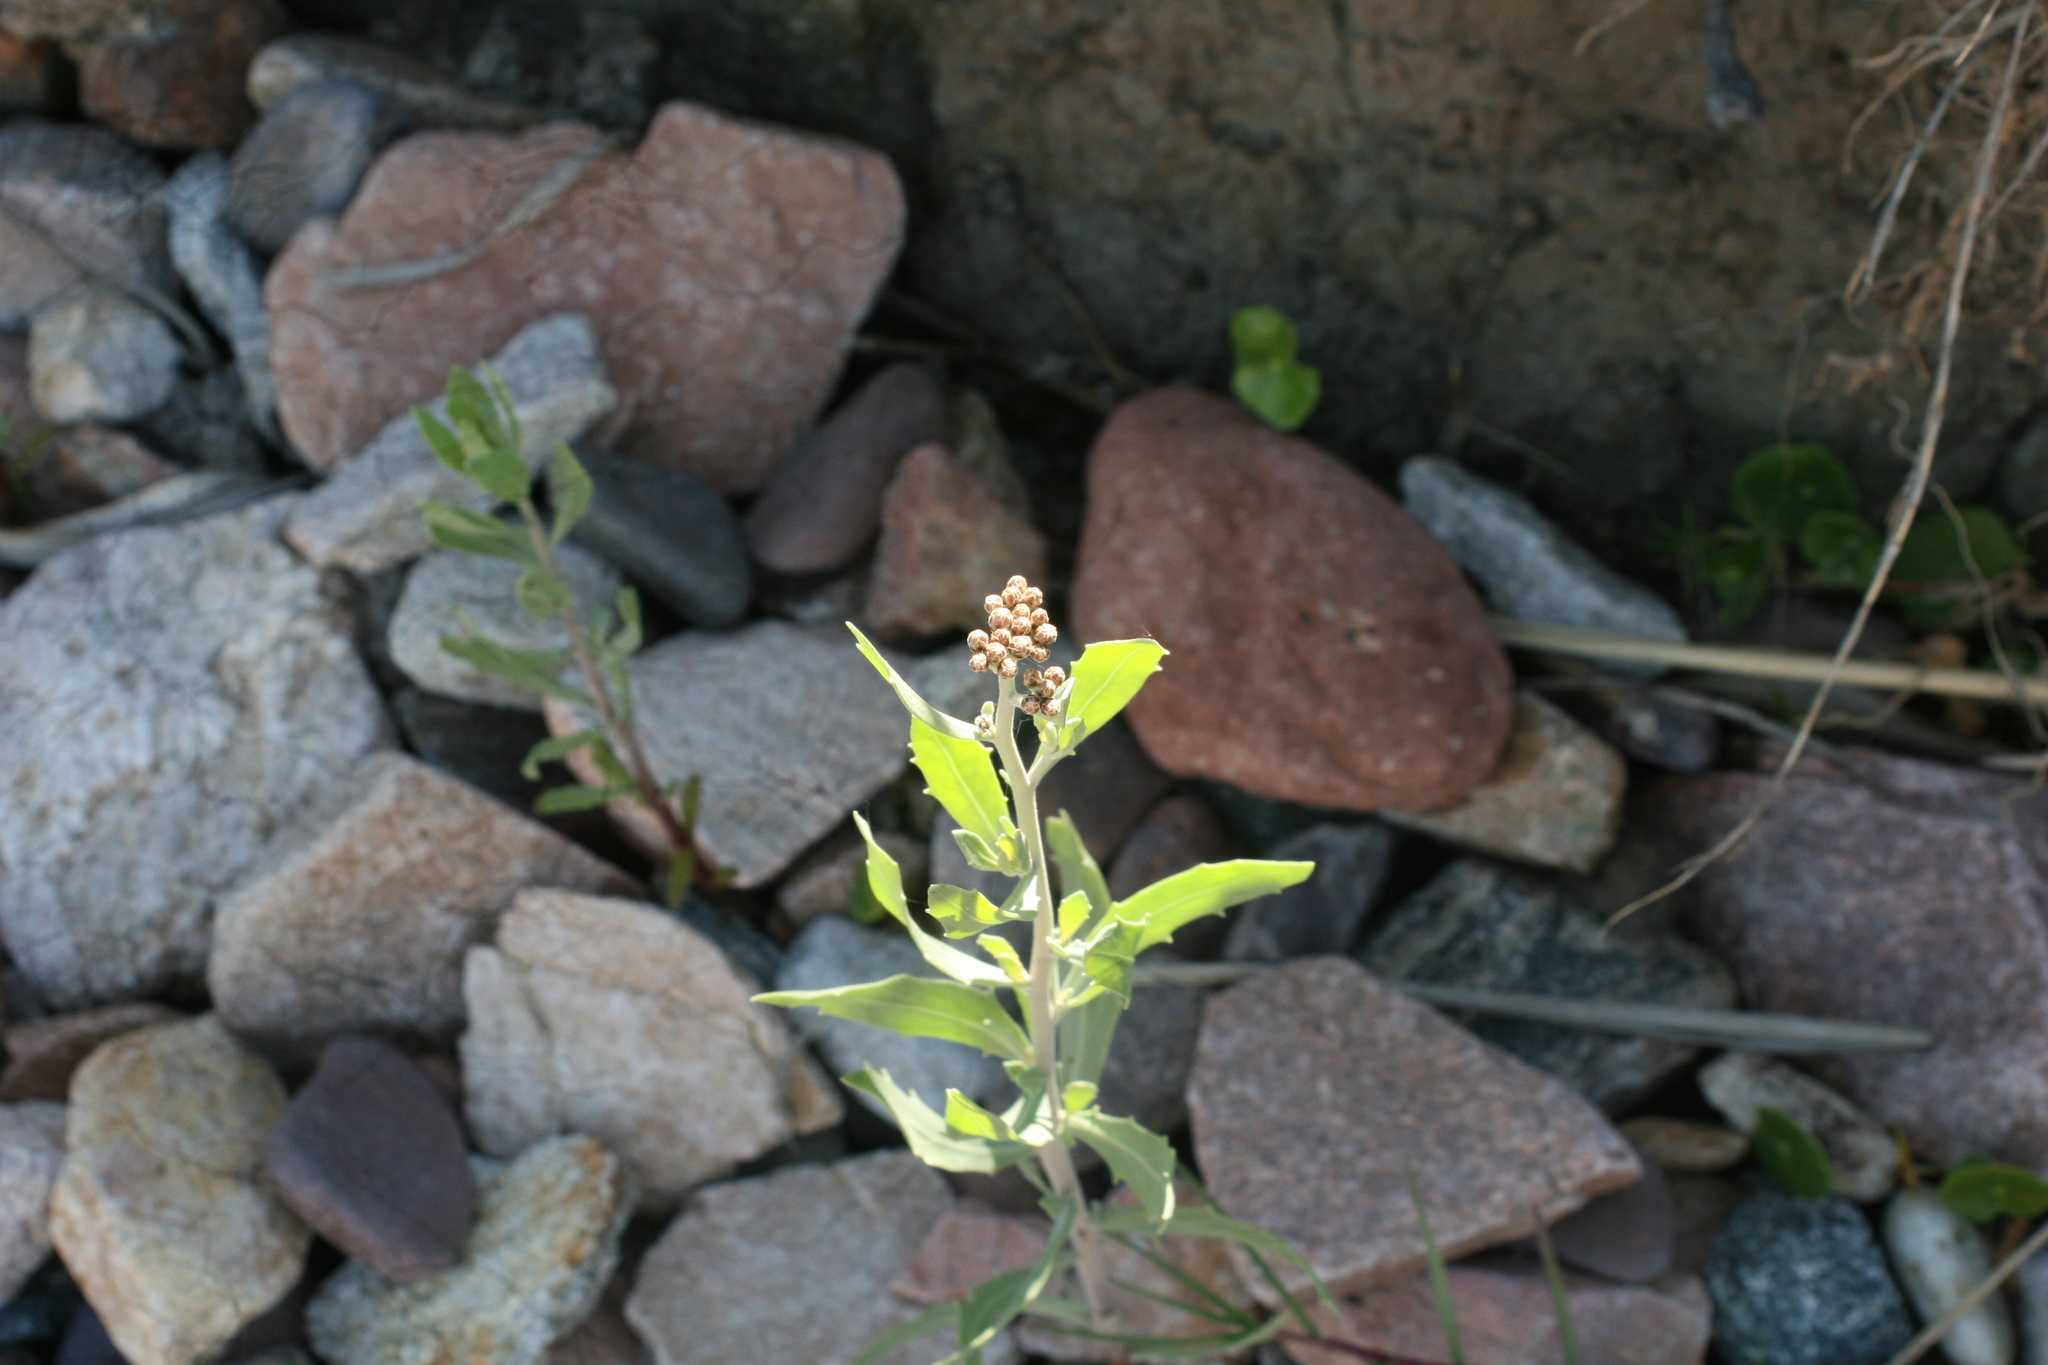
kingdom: Plantae
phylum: Tracheophyta
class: Magnoliopsida
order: Asterales
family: Asteraceae
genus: Tessaria
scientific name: Tessaria absinthioides
